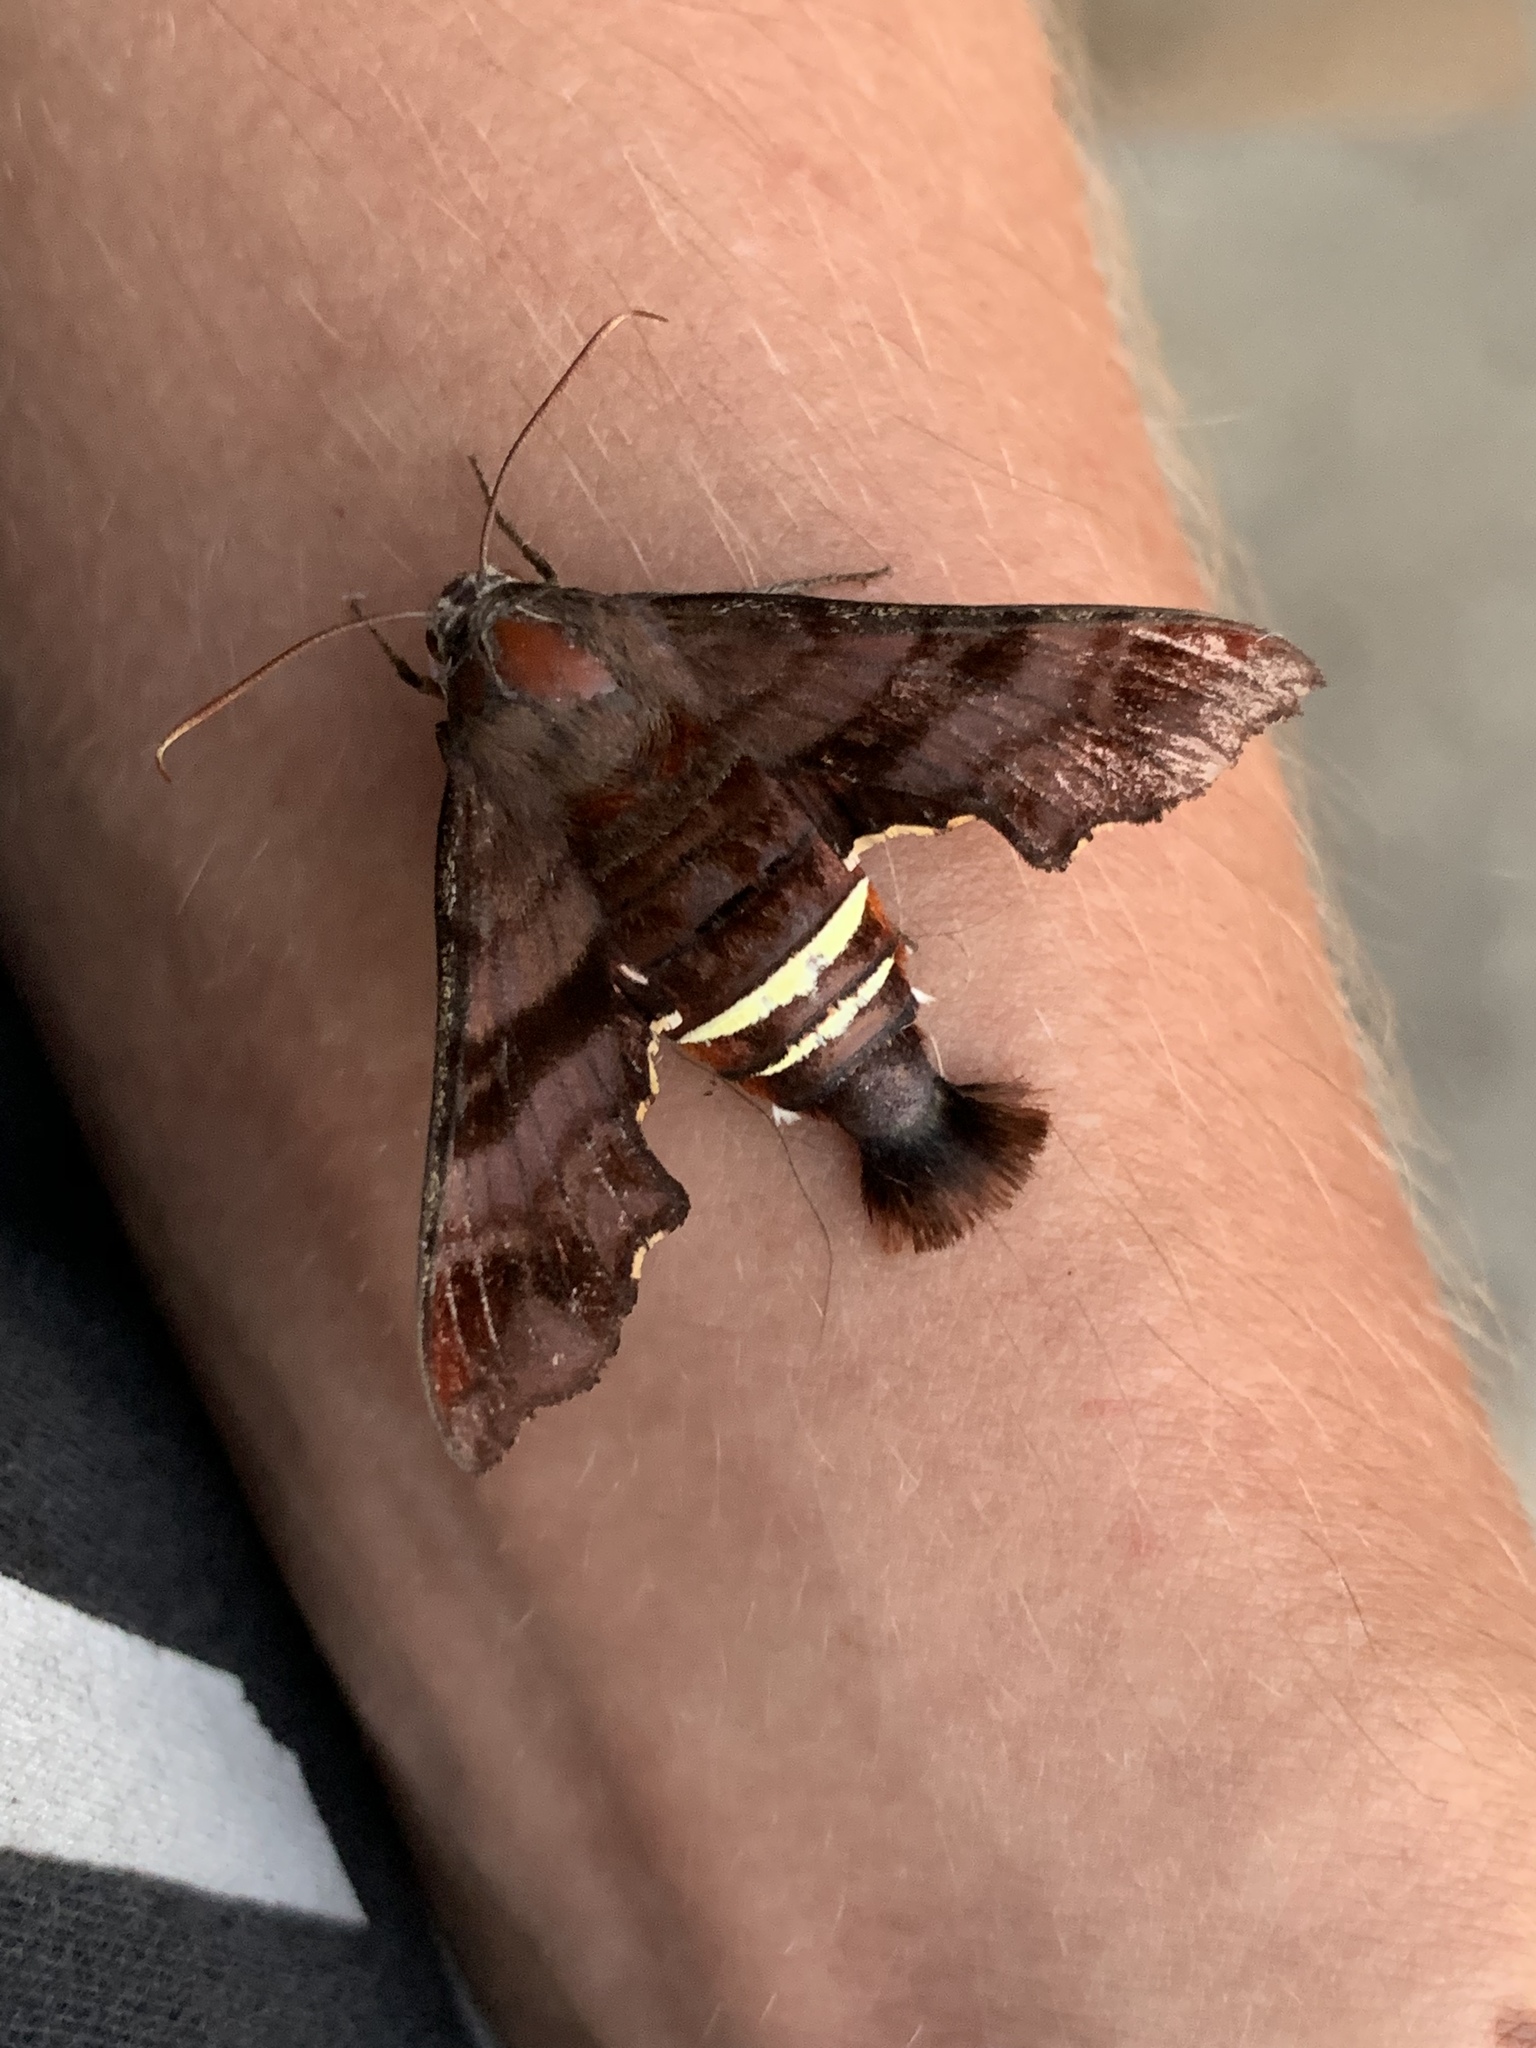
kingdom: Animalia
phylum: Arthropoda
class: Insecta
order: Lepidoptera
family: Sphingidae
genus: Amphion
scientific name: Amphion floridensis
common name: Nessus sphinx
